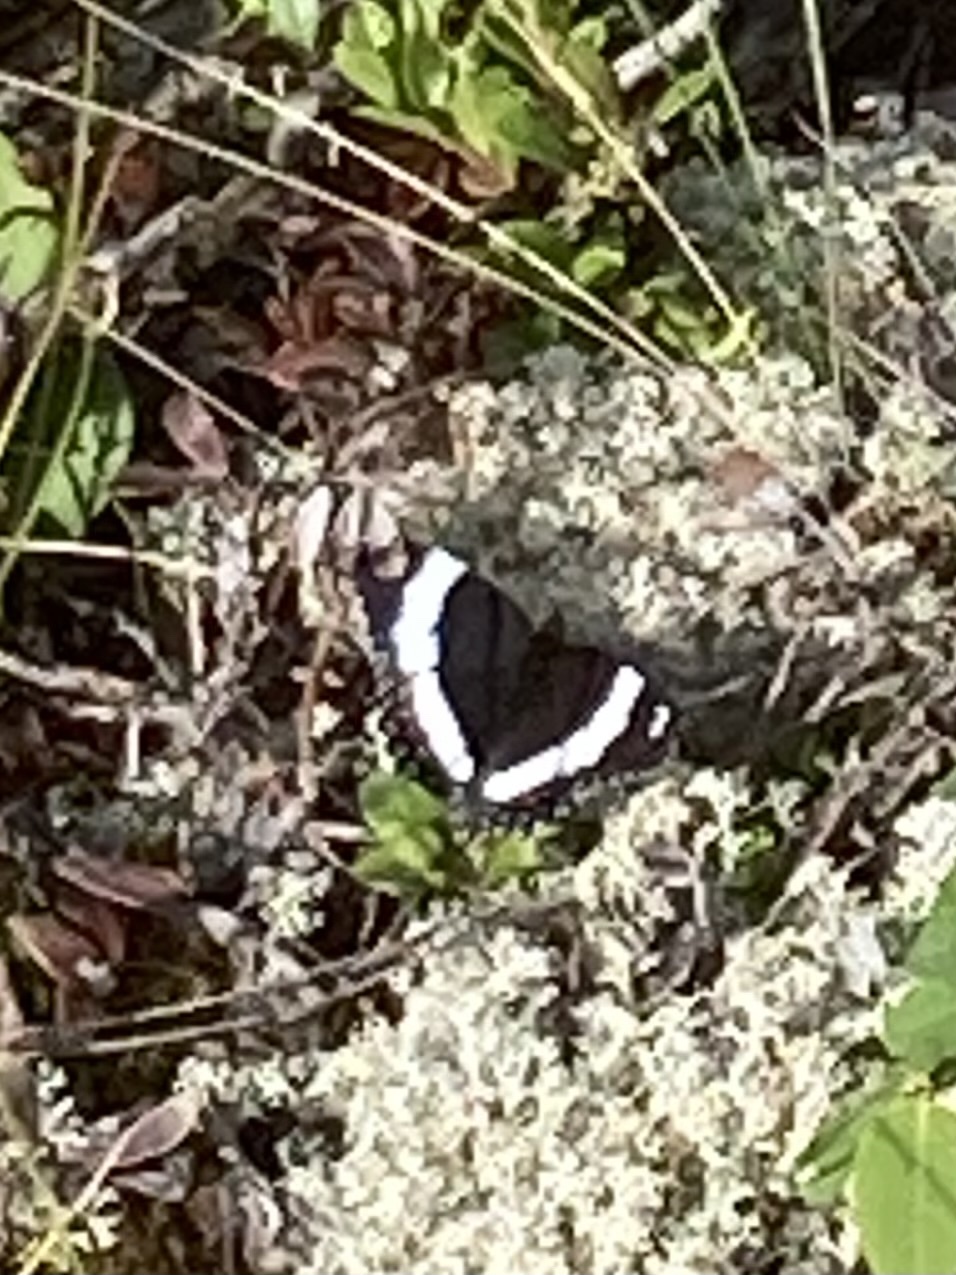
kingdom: Animalia
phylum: Arthropoda
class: Insecta
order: Lepidoptera
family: Nymphalidae
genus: Limenitis
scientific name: Limenitis arthemis
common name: Red-spotted admiral
